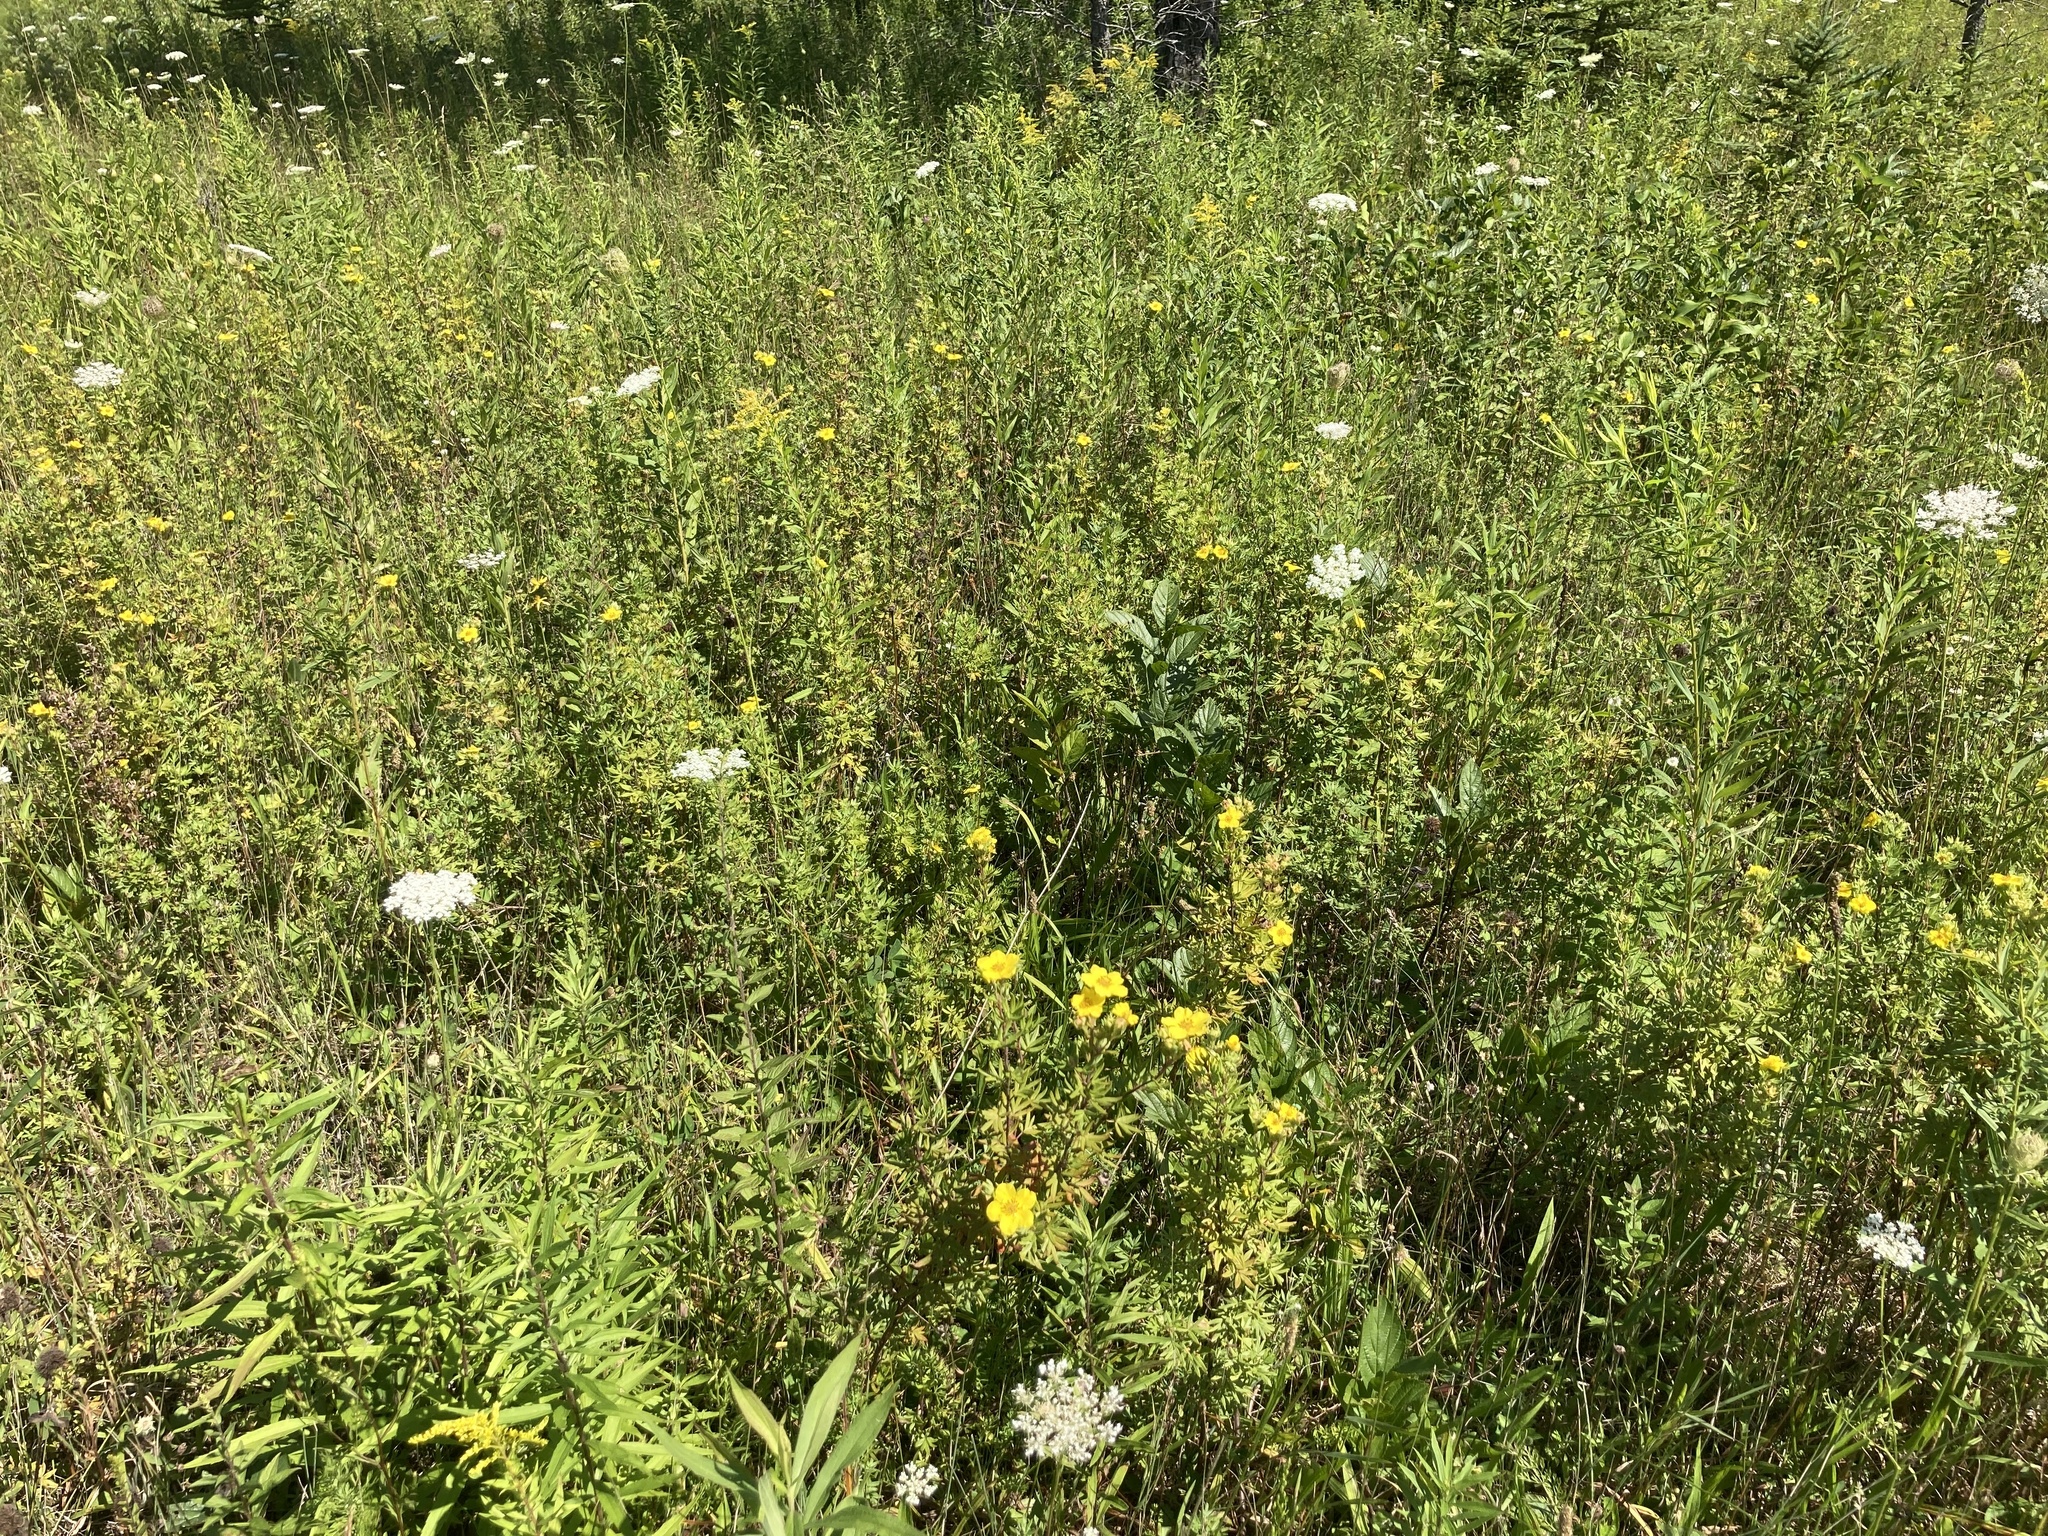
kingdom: Plantae
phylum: Tracheophyta
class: Magnoliopsida
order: Rosales
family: Rosaceae
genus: Dasiphora
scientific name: Dasiphora fruticosa
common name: Shrubby cinquefoil
